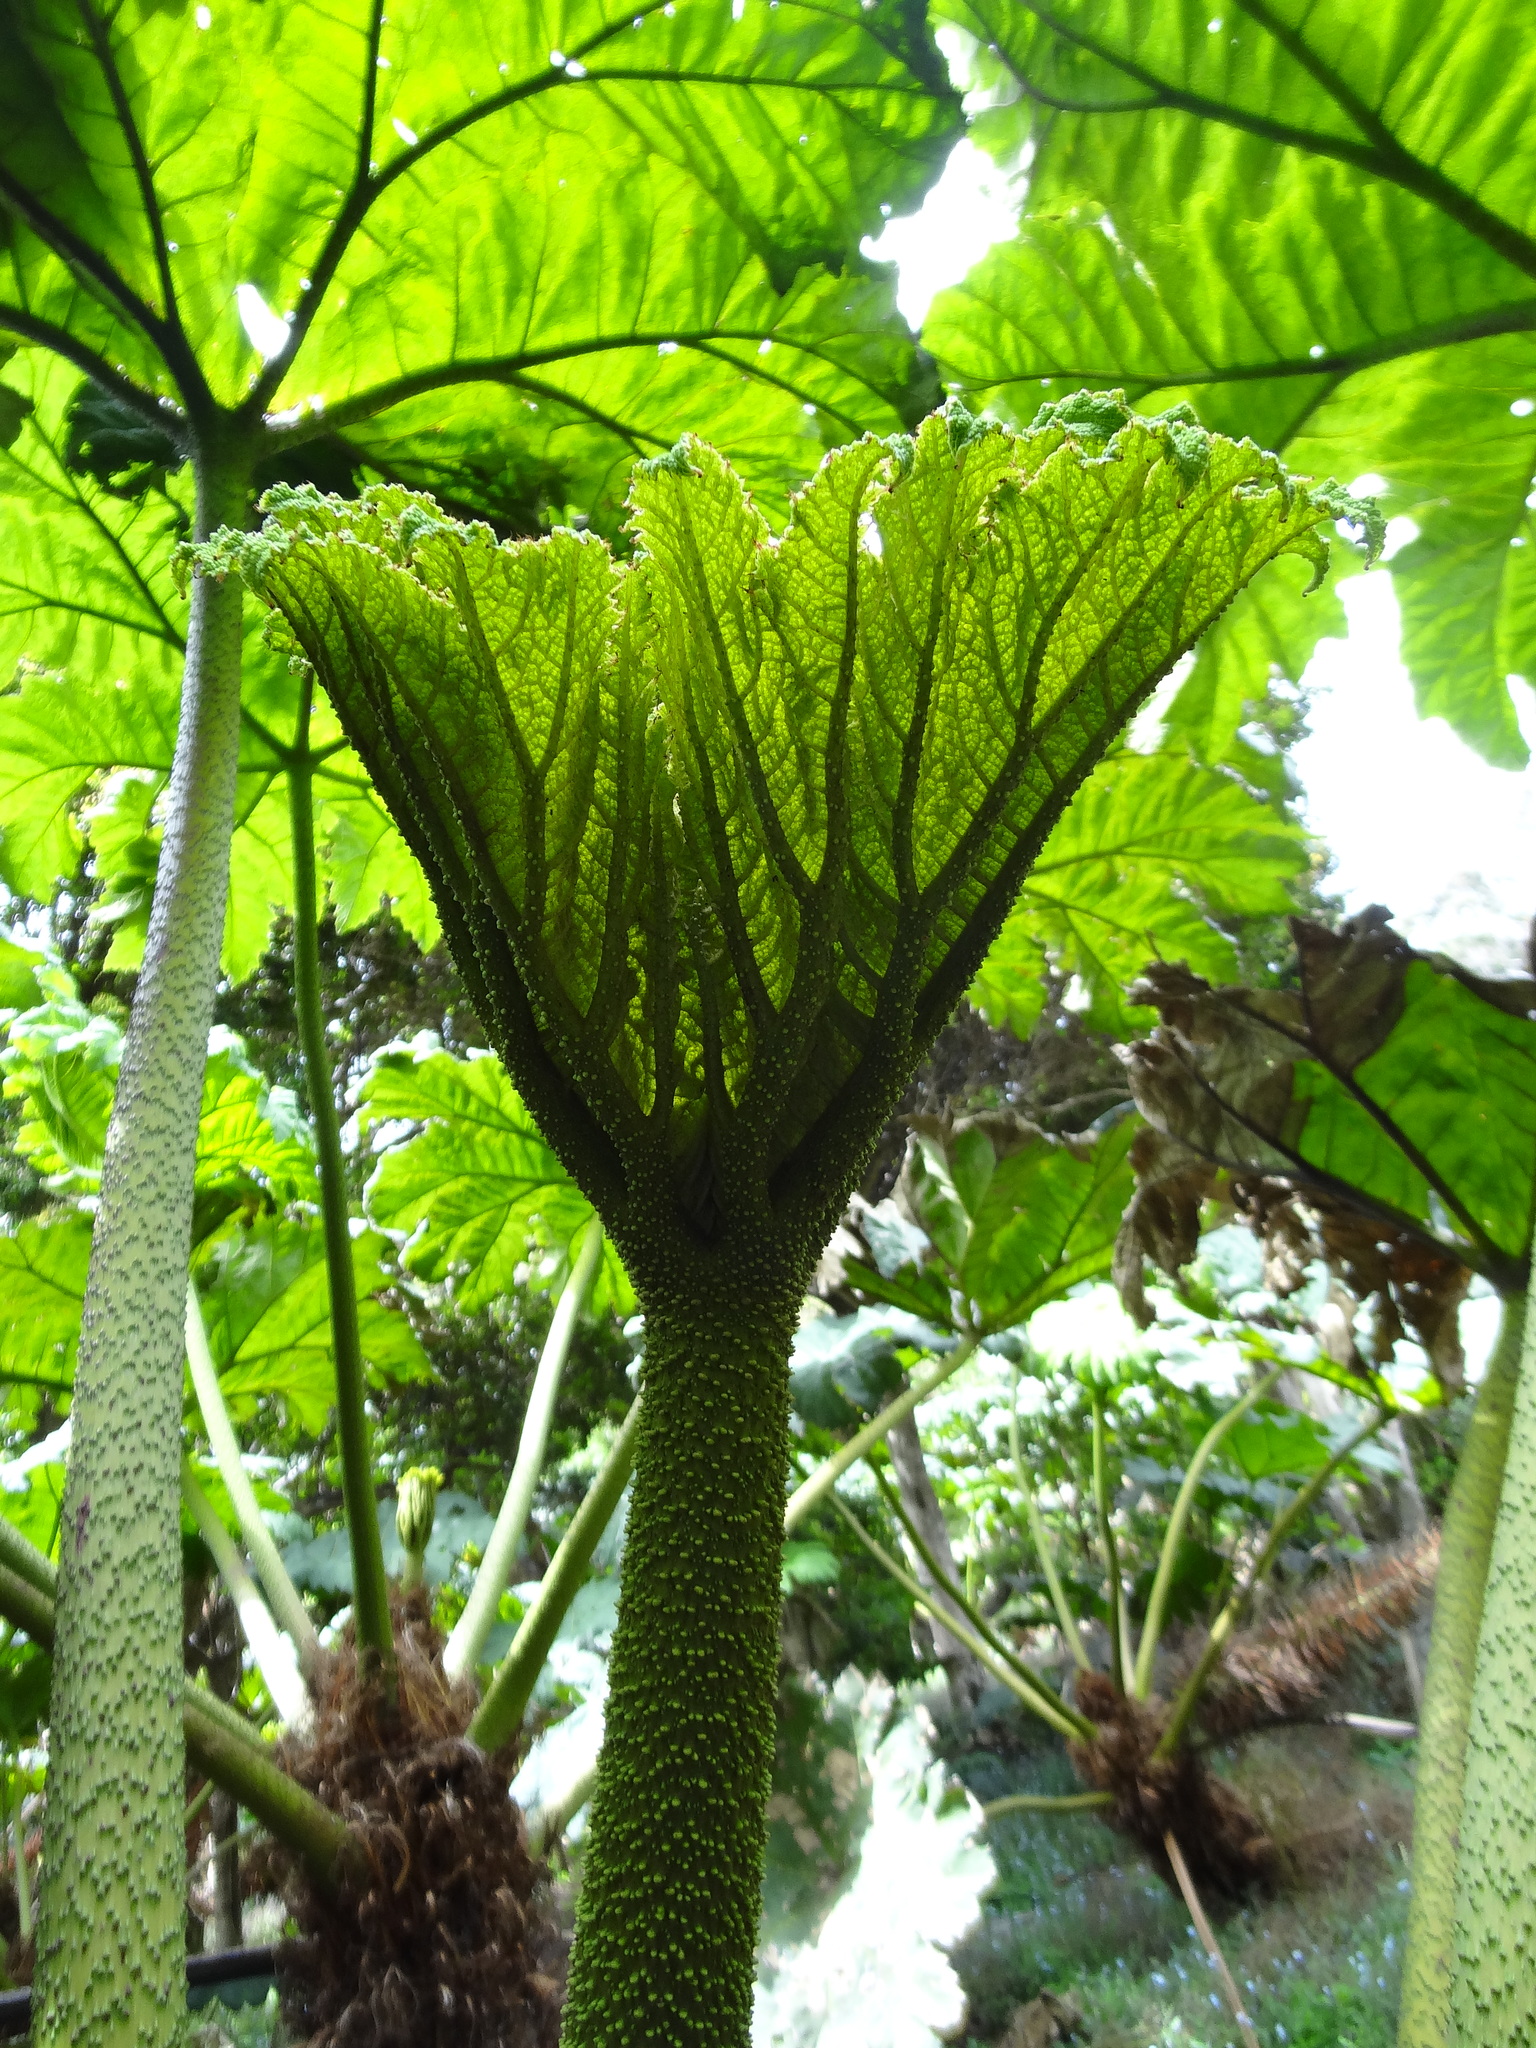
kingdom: Plantae
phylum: Tracheophyta
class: Magnoliopsida
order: Gunnerales
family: Gunneraceae
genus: Gunnera
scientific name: Gunnera peltata
